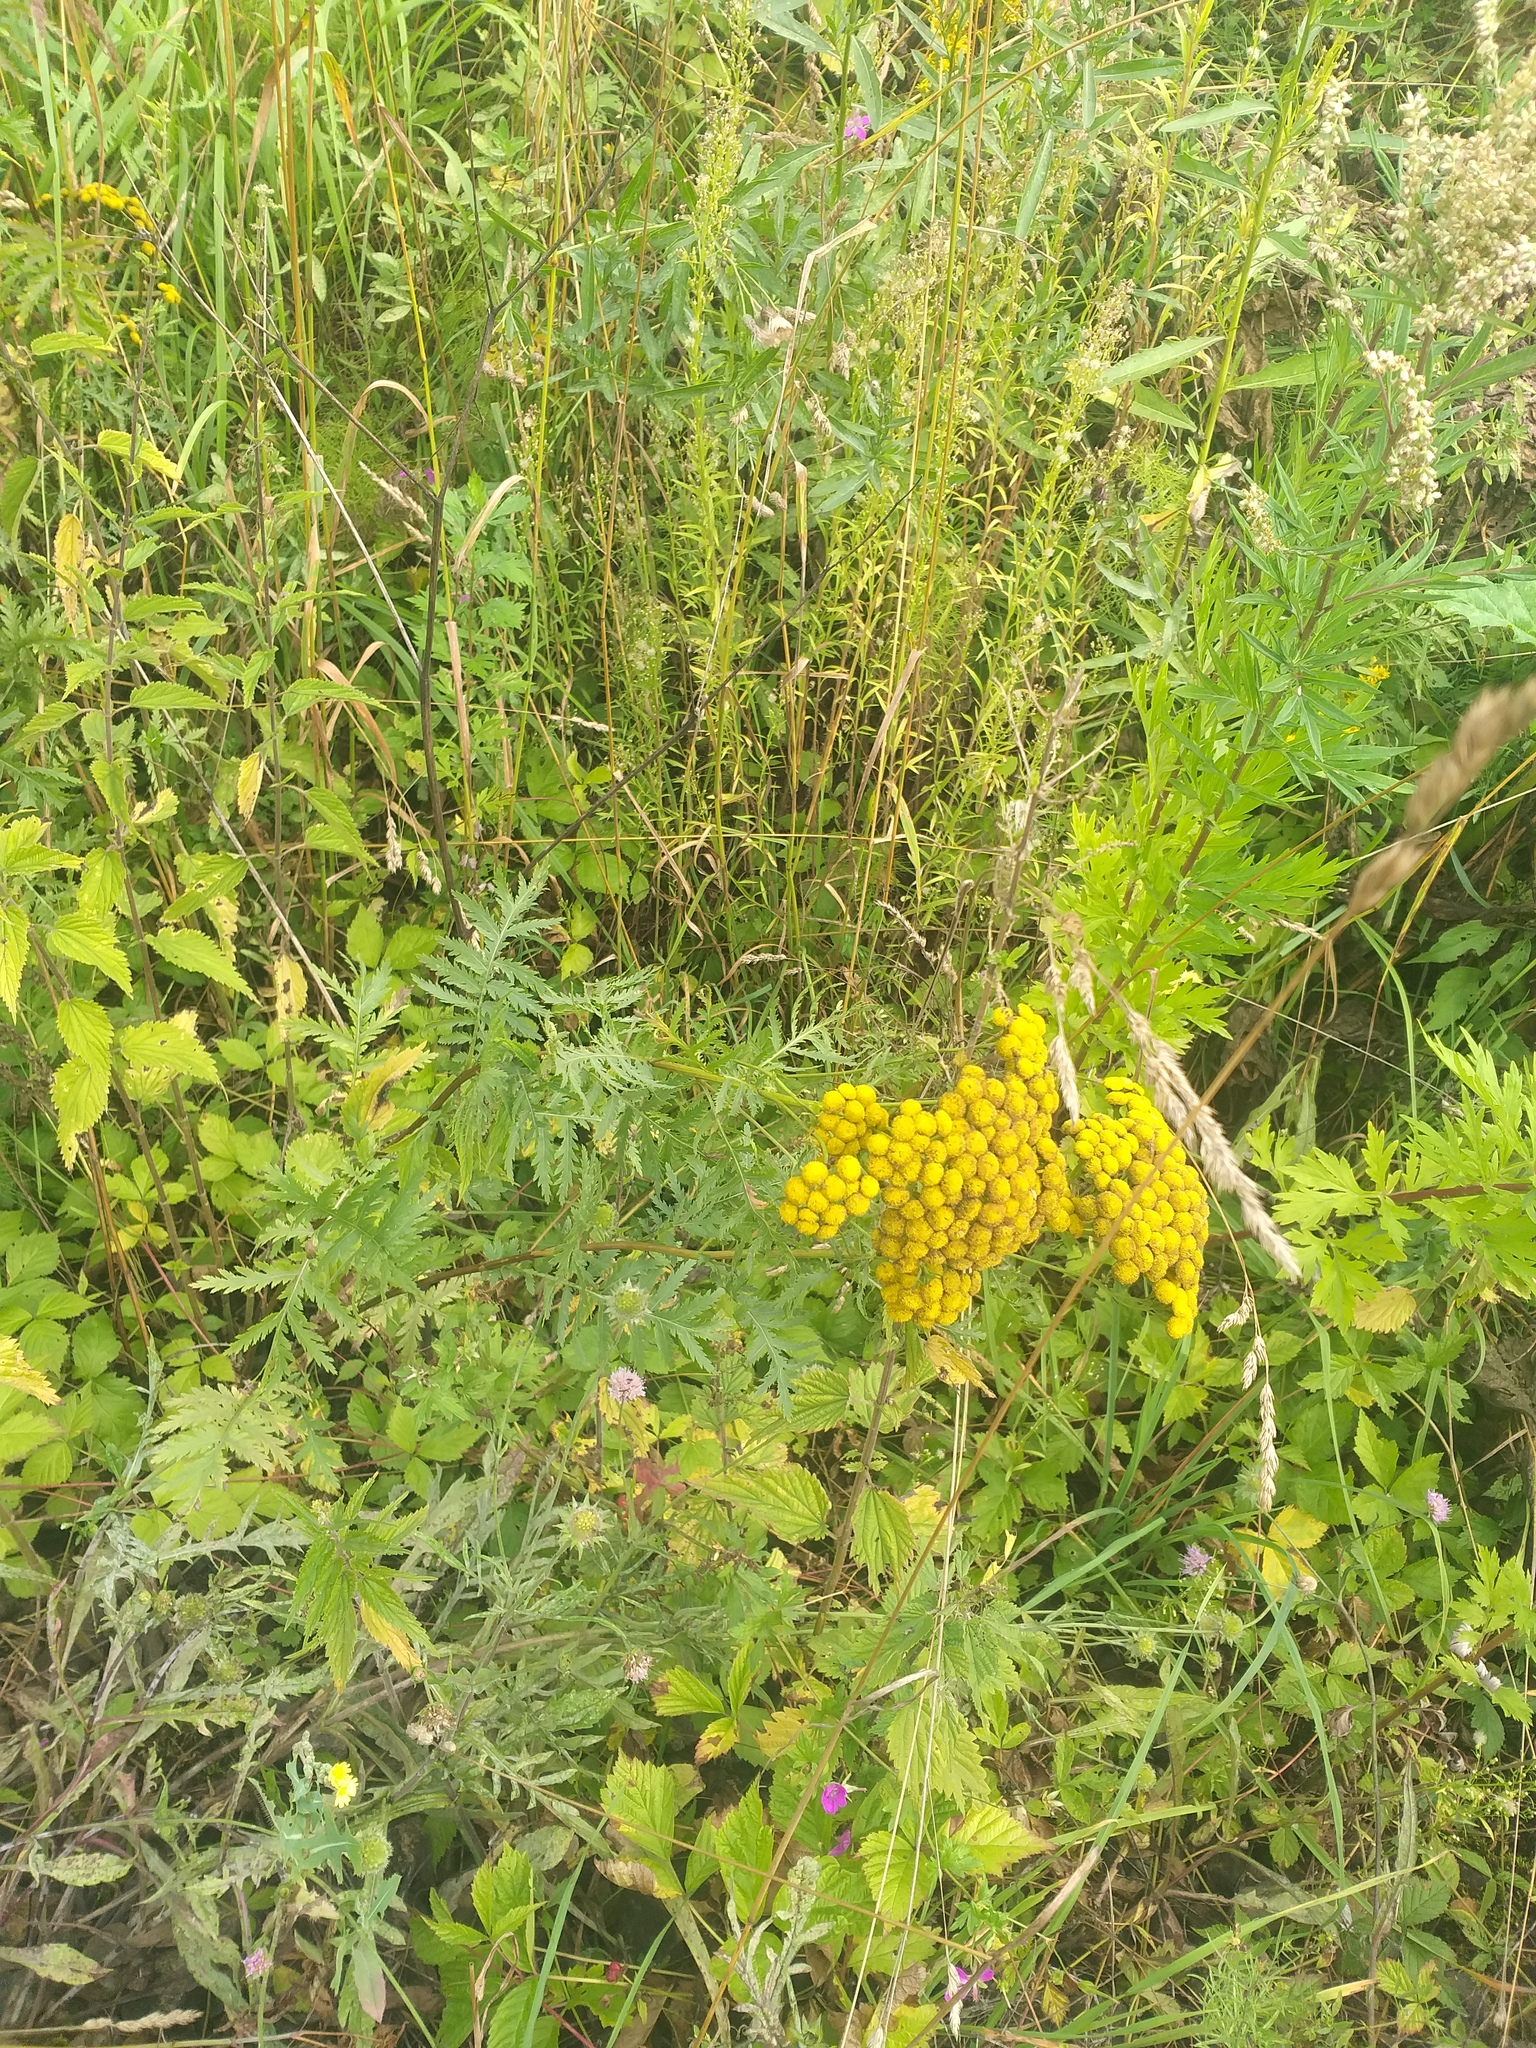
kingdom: Plantae
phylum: Tracheophyta
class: Magnoliopsida
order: Asterales
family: Asteraceae
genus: Tanacetum
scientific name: Tanacetum vulgare
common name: Common tansy
